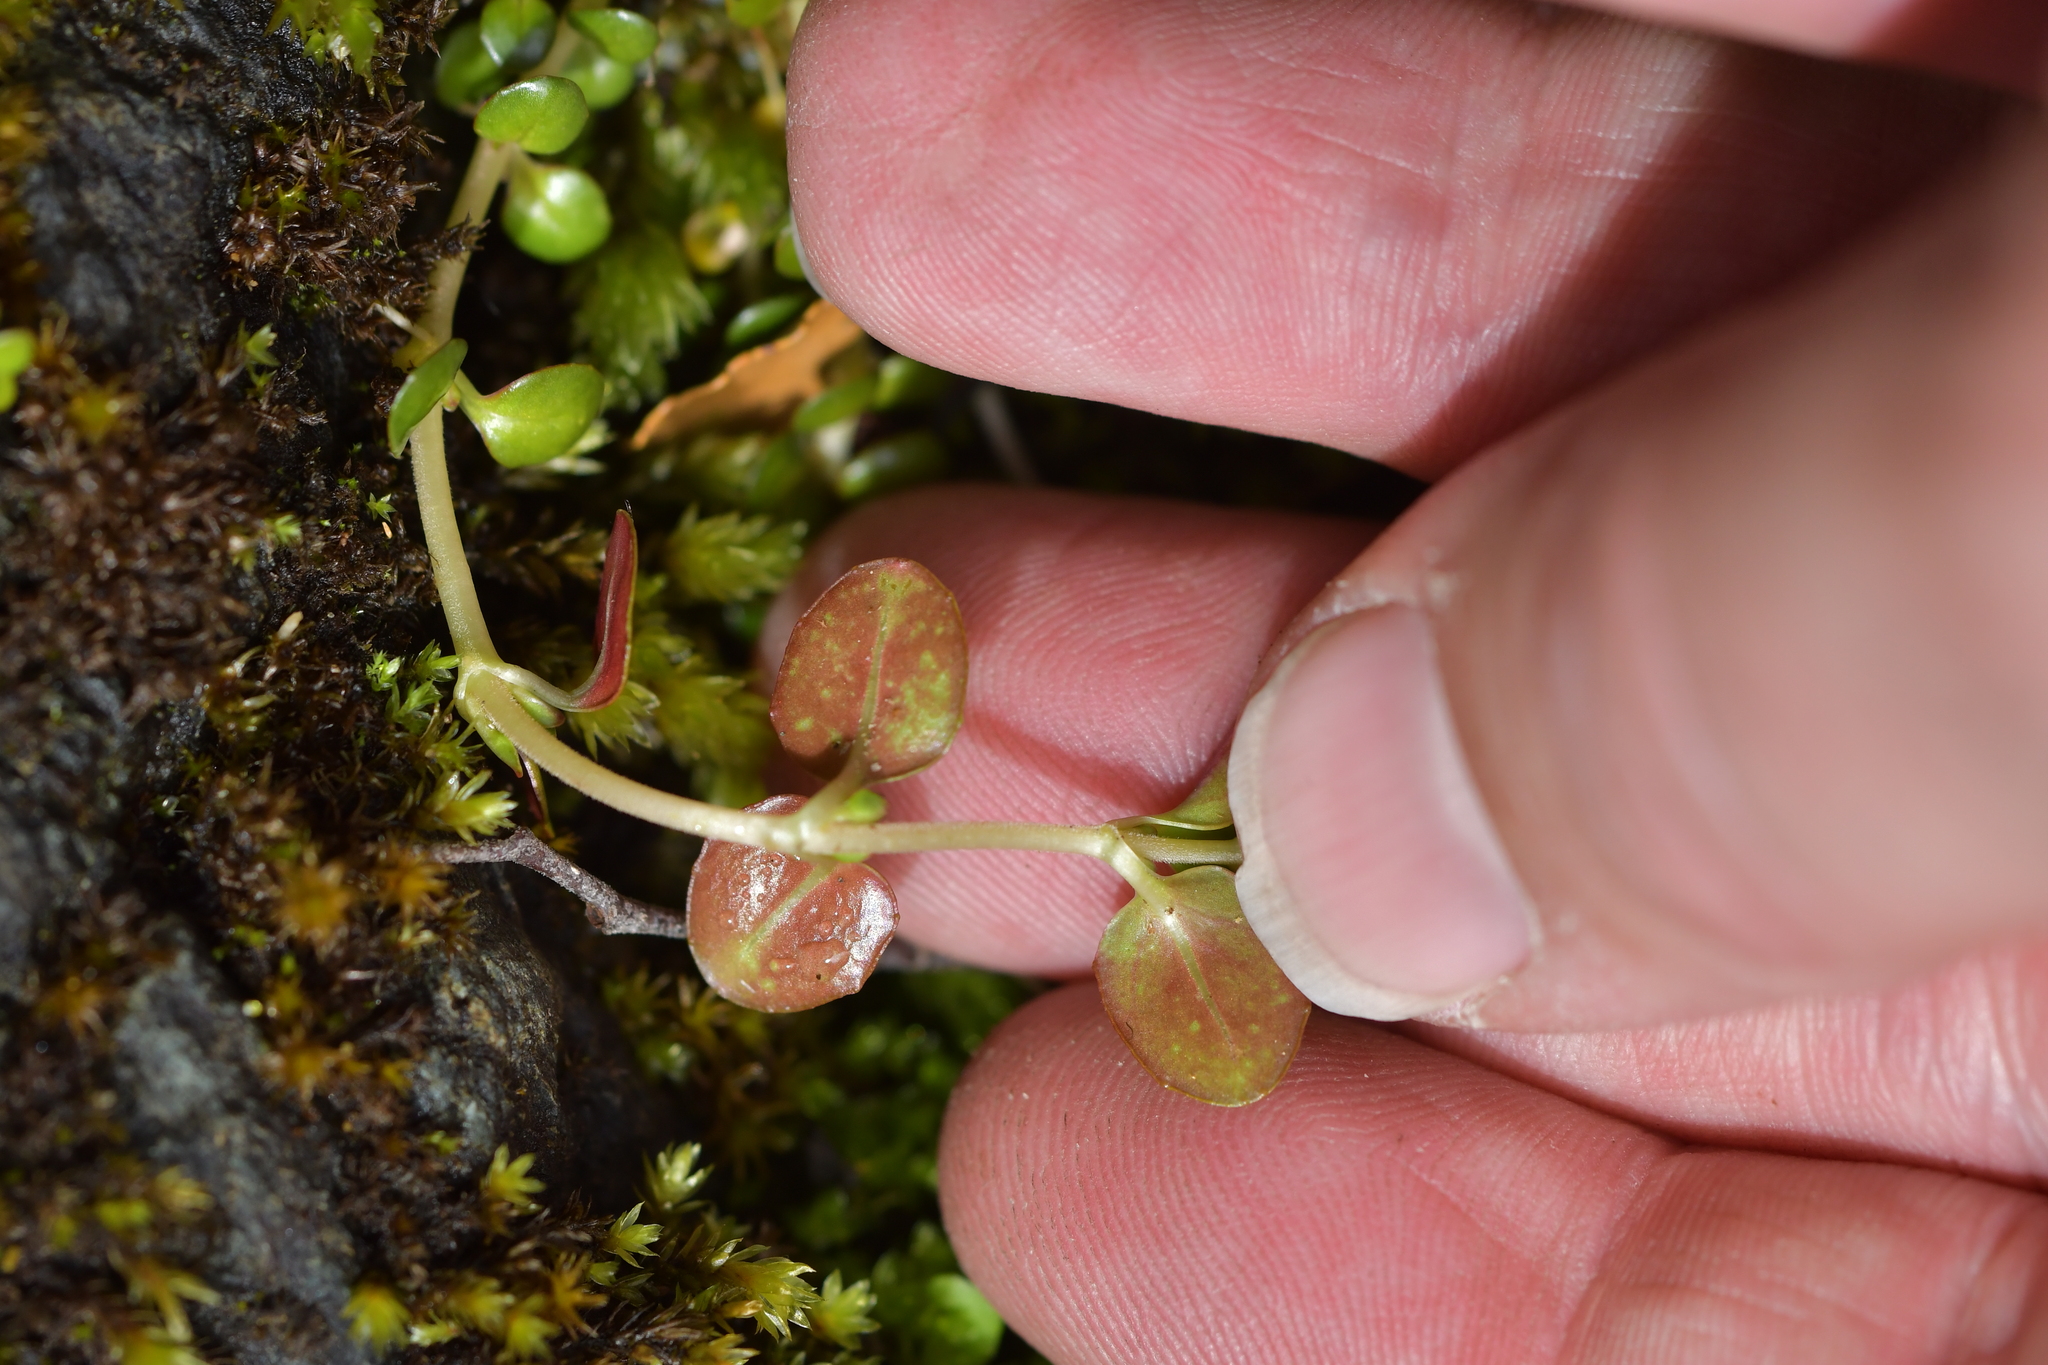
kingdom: Plantae
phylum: Tracheophyta
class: Magnoliopsida
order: Myrtales
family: Onagraceae
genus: Epilobium
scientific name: Epilobium brunnescens
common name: New zealand willowherb
